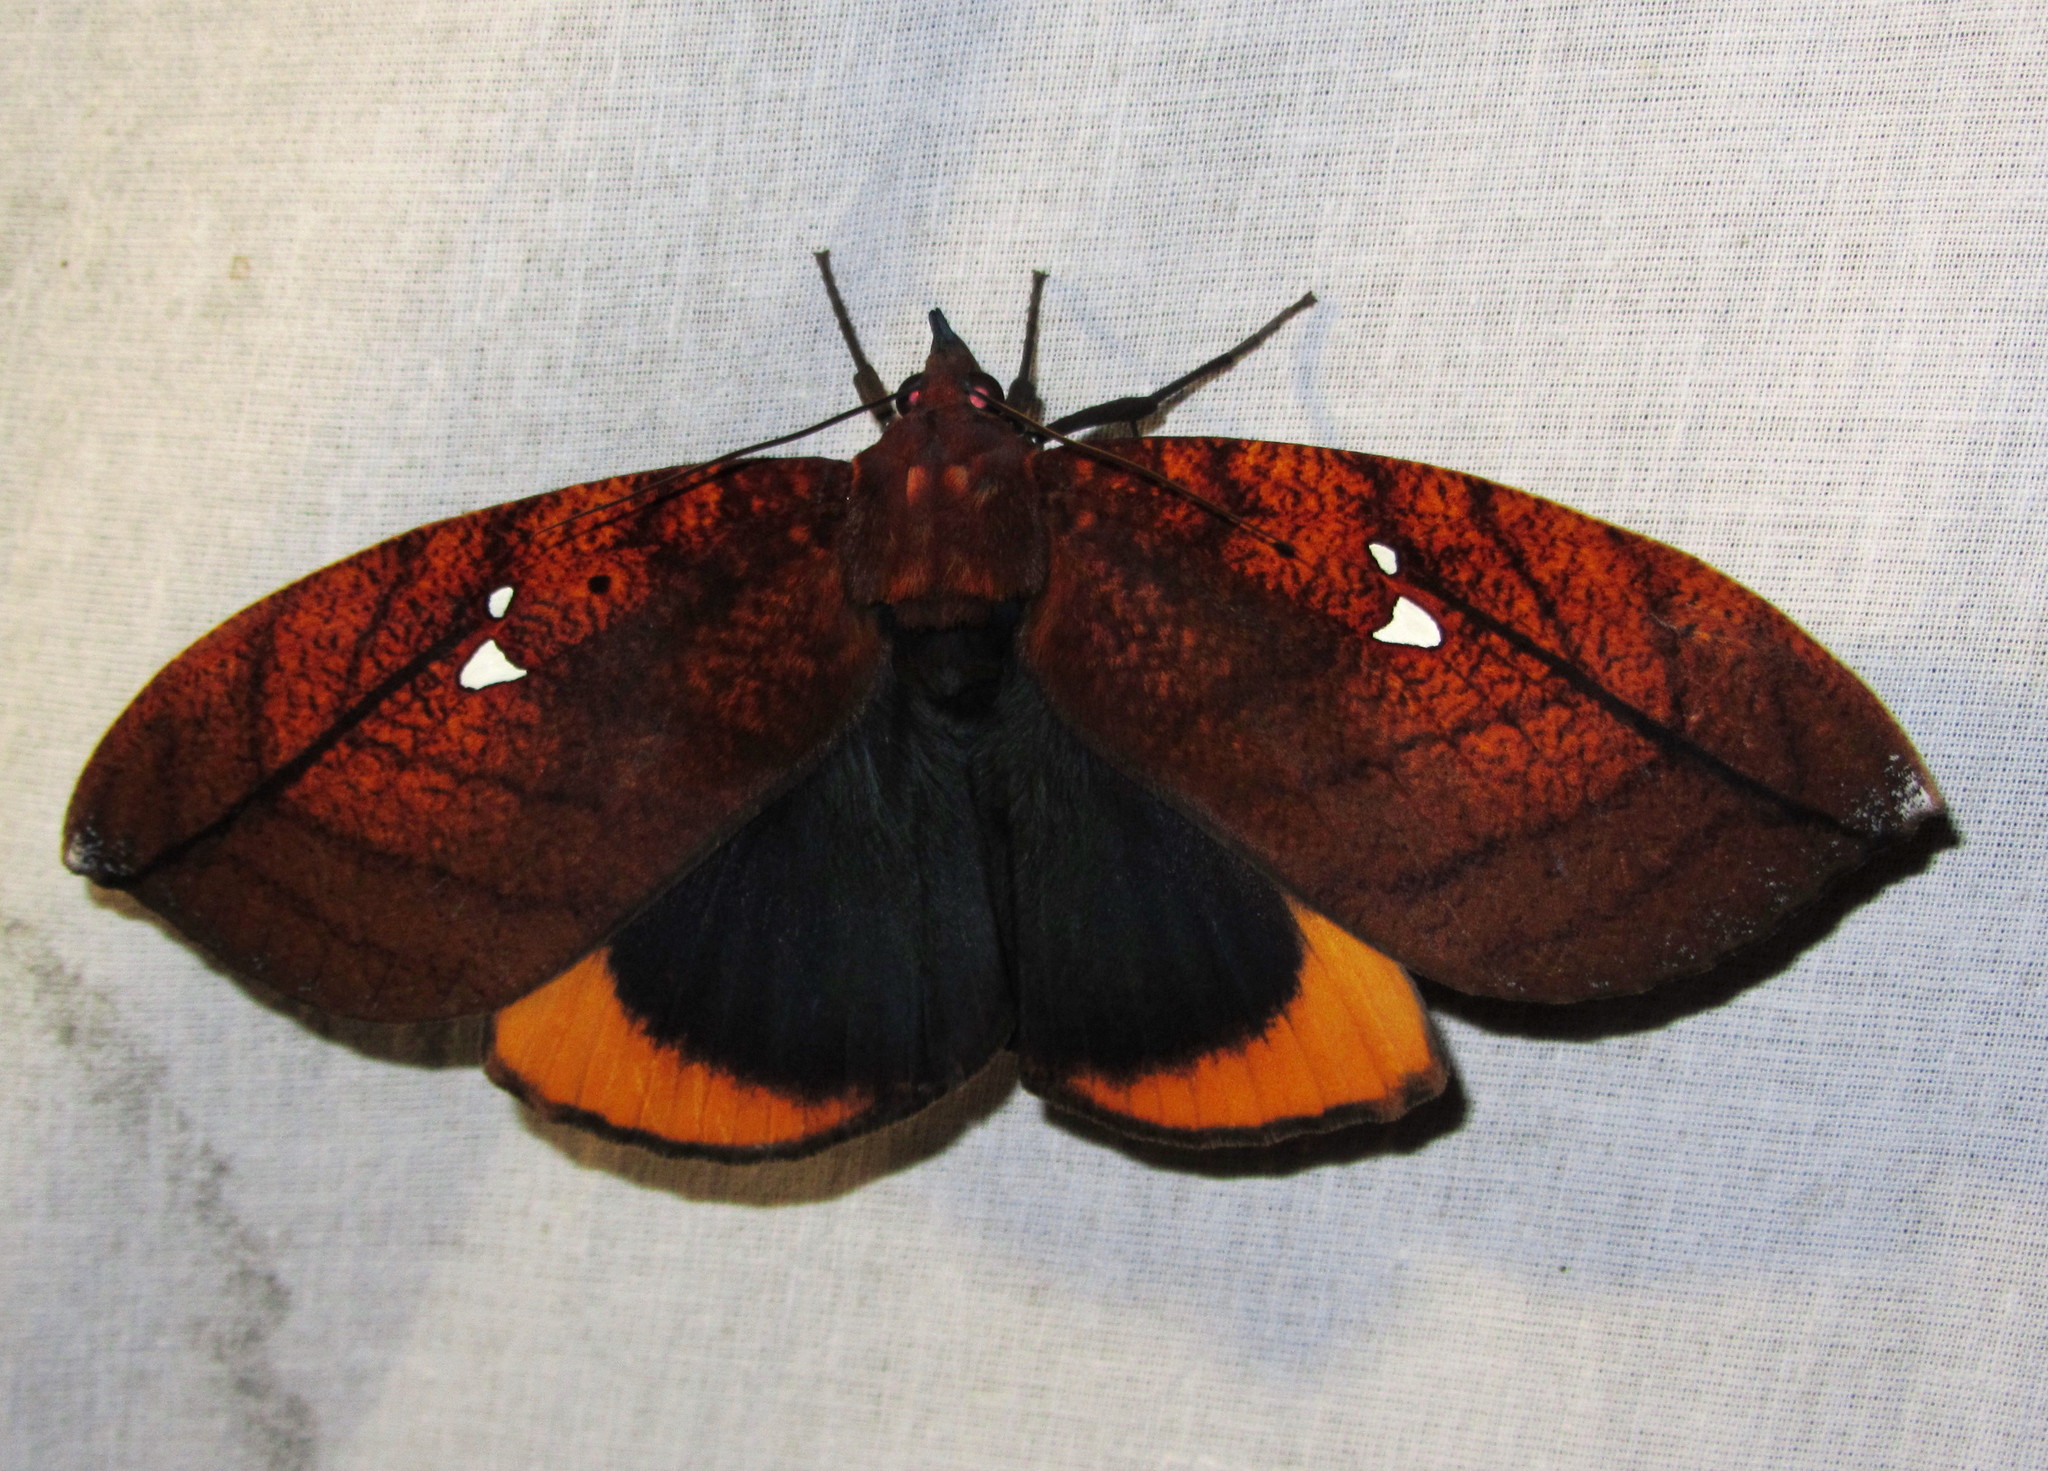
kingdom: Animalia
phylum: Arthropoda
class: Insecta
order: Lepidoptera
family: Erebidae
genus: Gloriana
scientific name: Gloriana ornata
